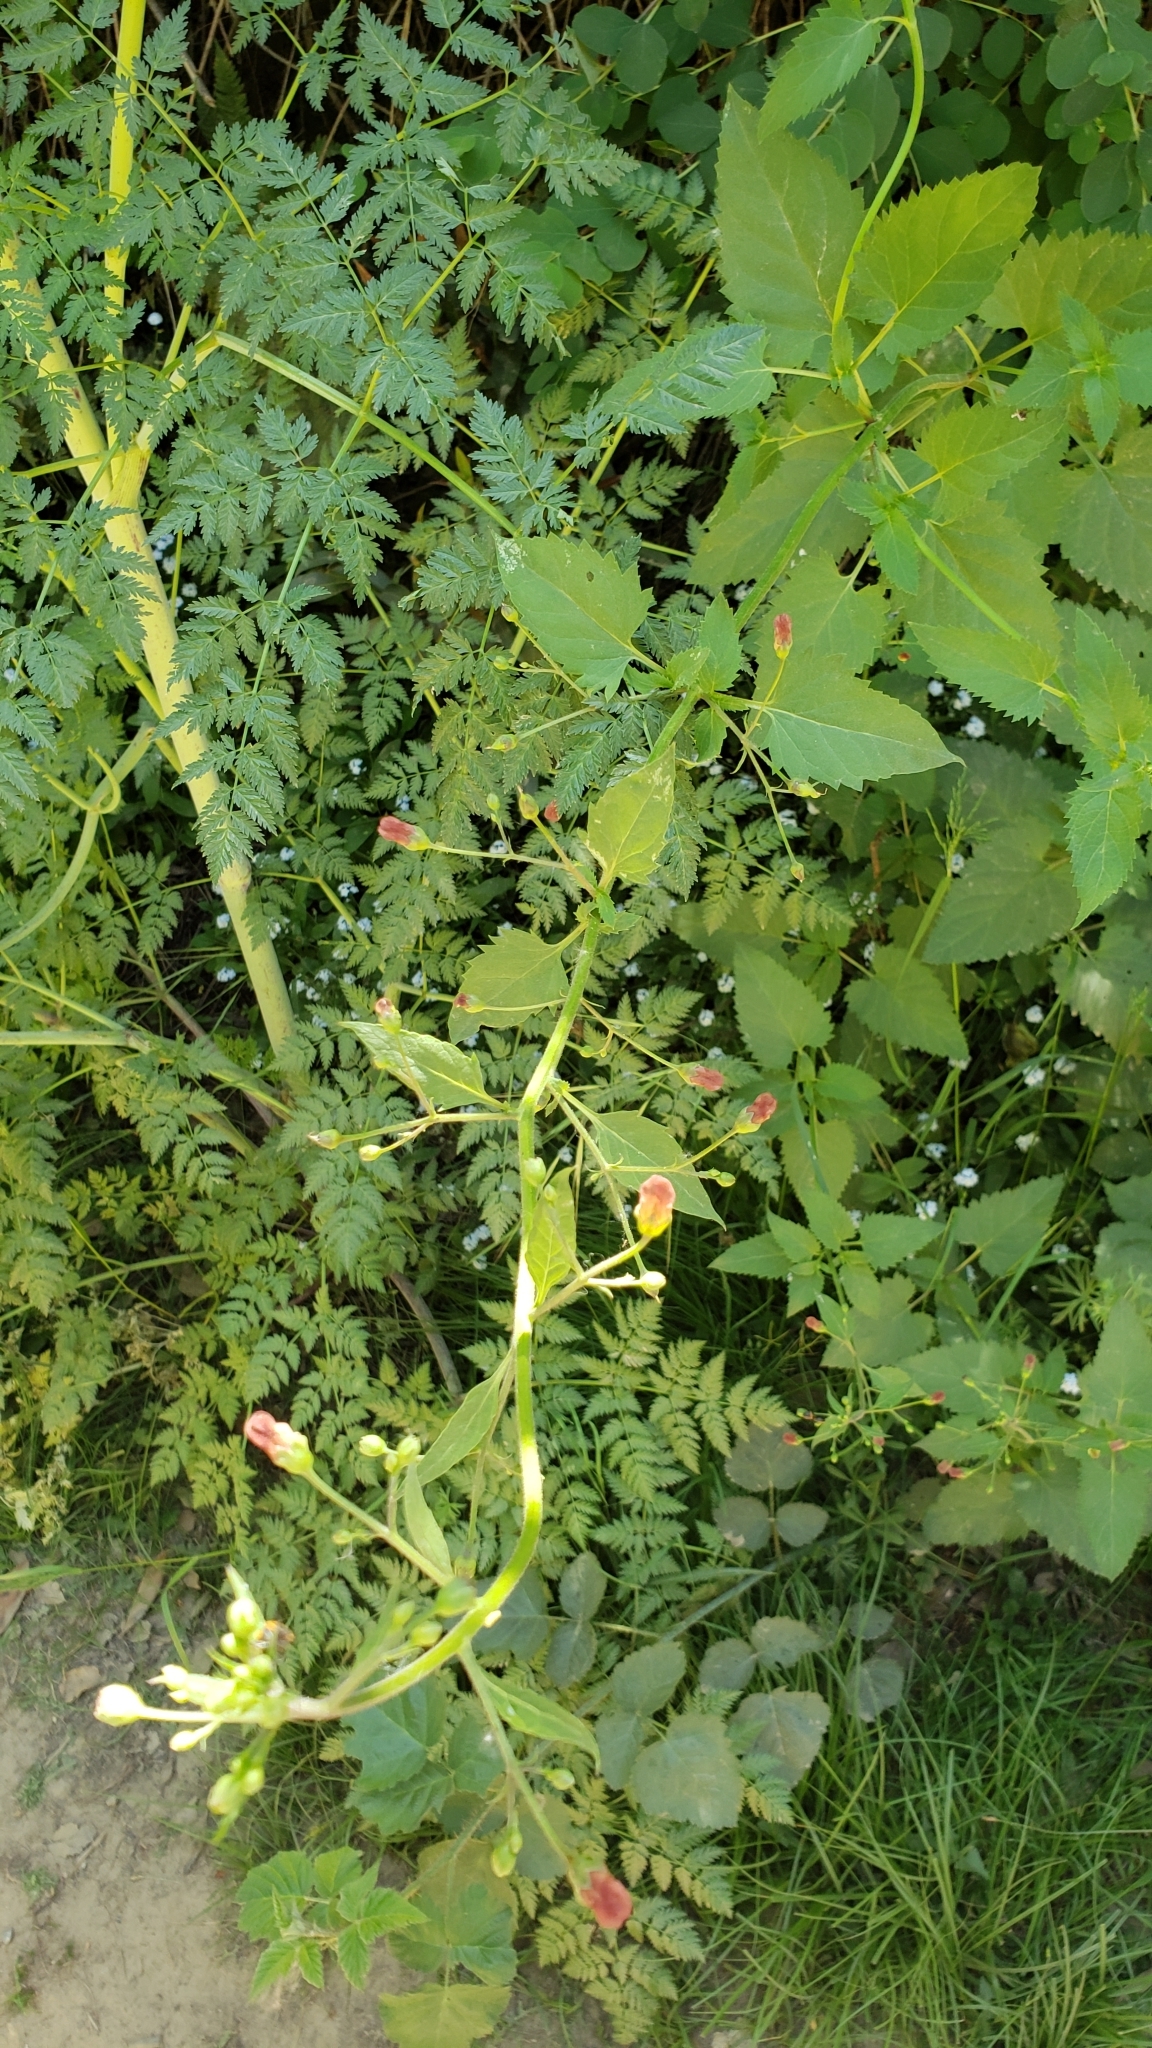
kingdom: Plantae
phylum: Tracheophyta
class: Magnoliopsida
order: Lamiales
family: Scrophulariaceae
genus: Scrophularia
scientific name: Scrophularia californica
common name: California figwort
